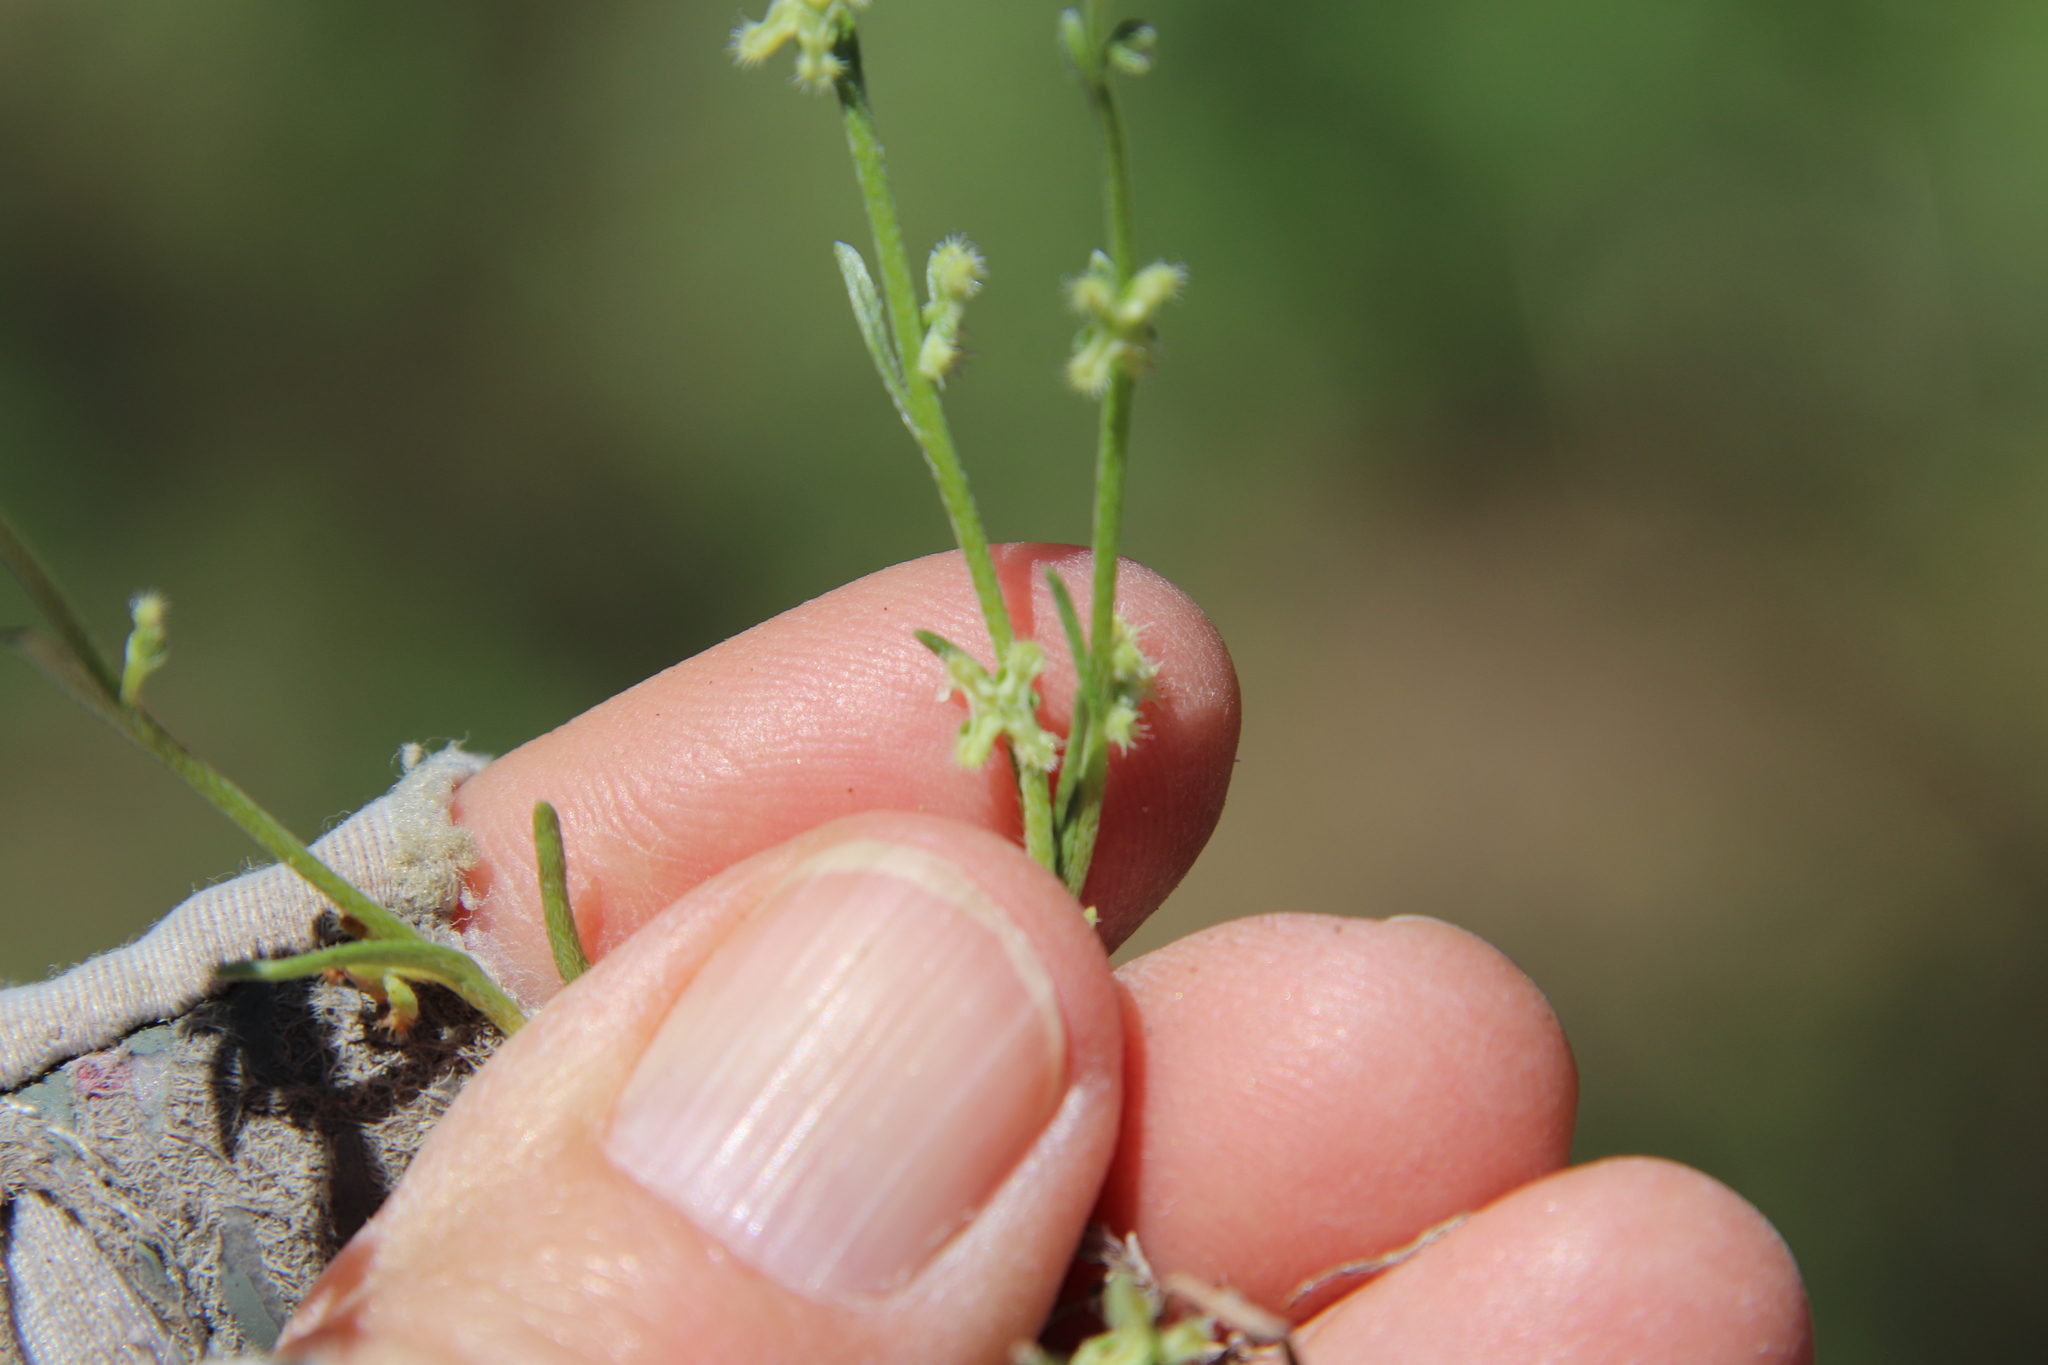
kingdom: Plantae
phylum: Tracheophyta
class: Magnoliopsida
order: Boraginales
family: Boraginaceae
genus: Pectocarya
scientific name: Pectocarya penicillata
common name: Short-leaved combseed
